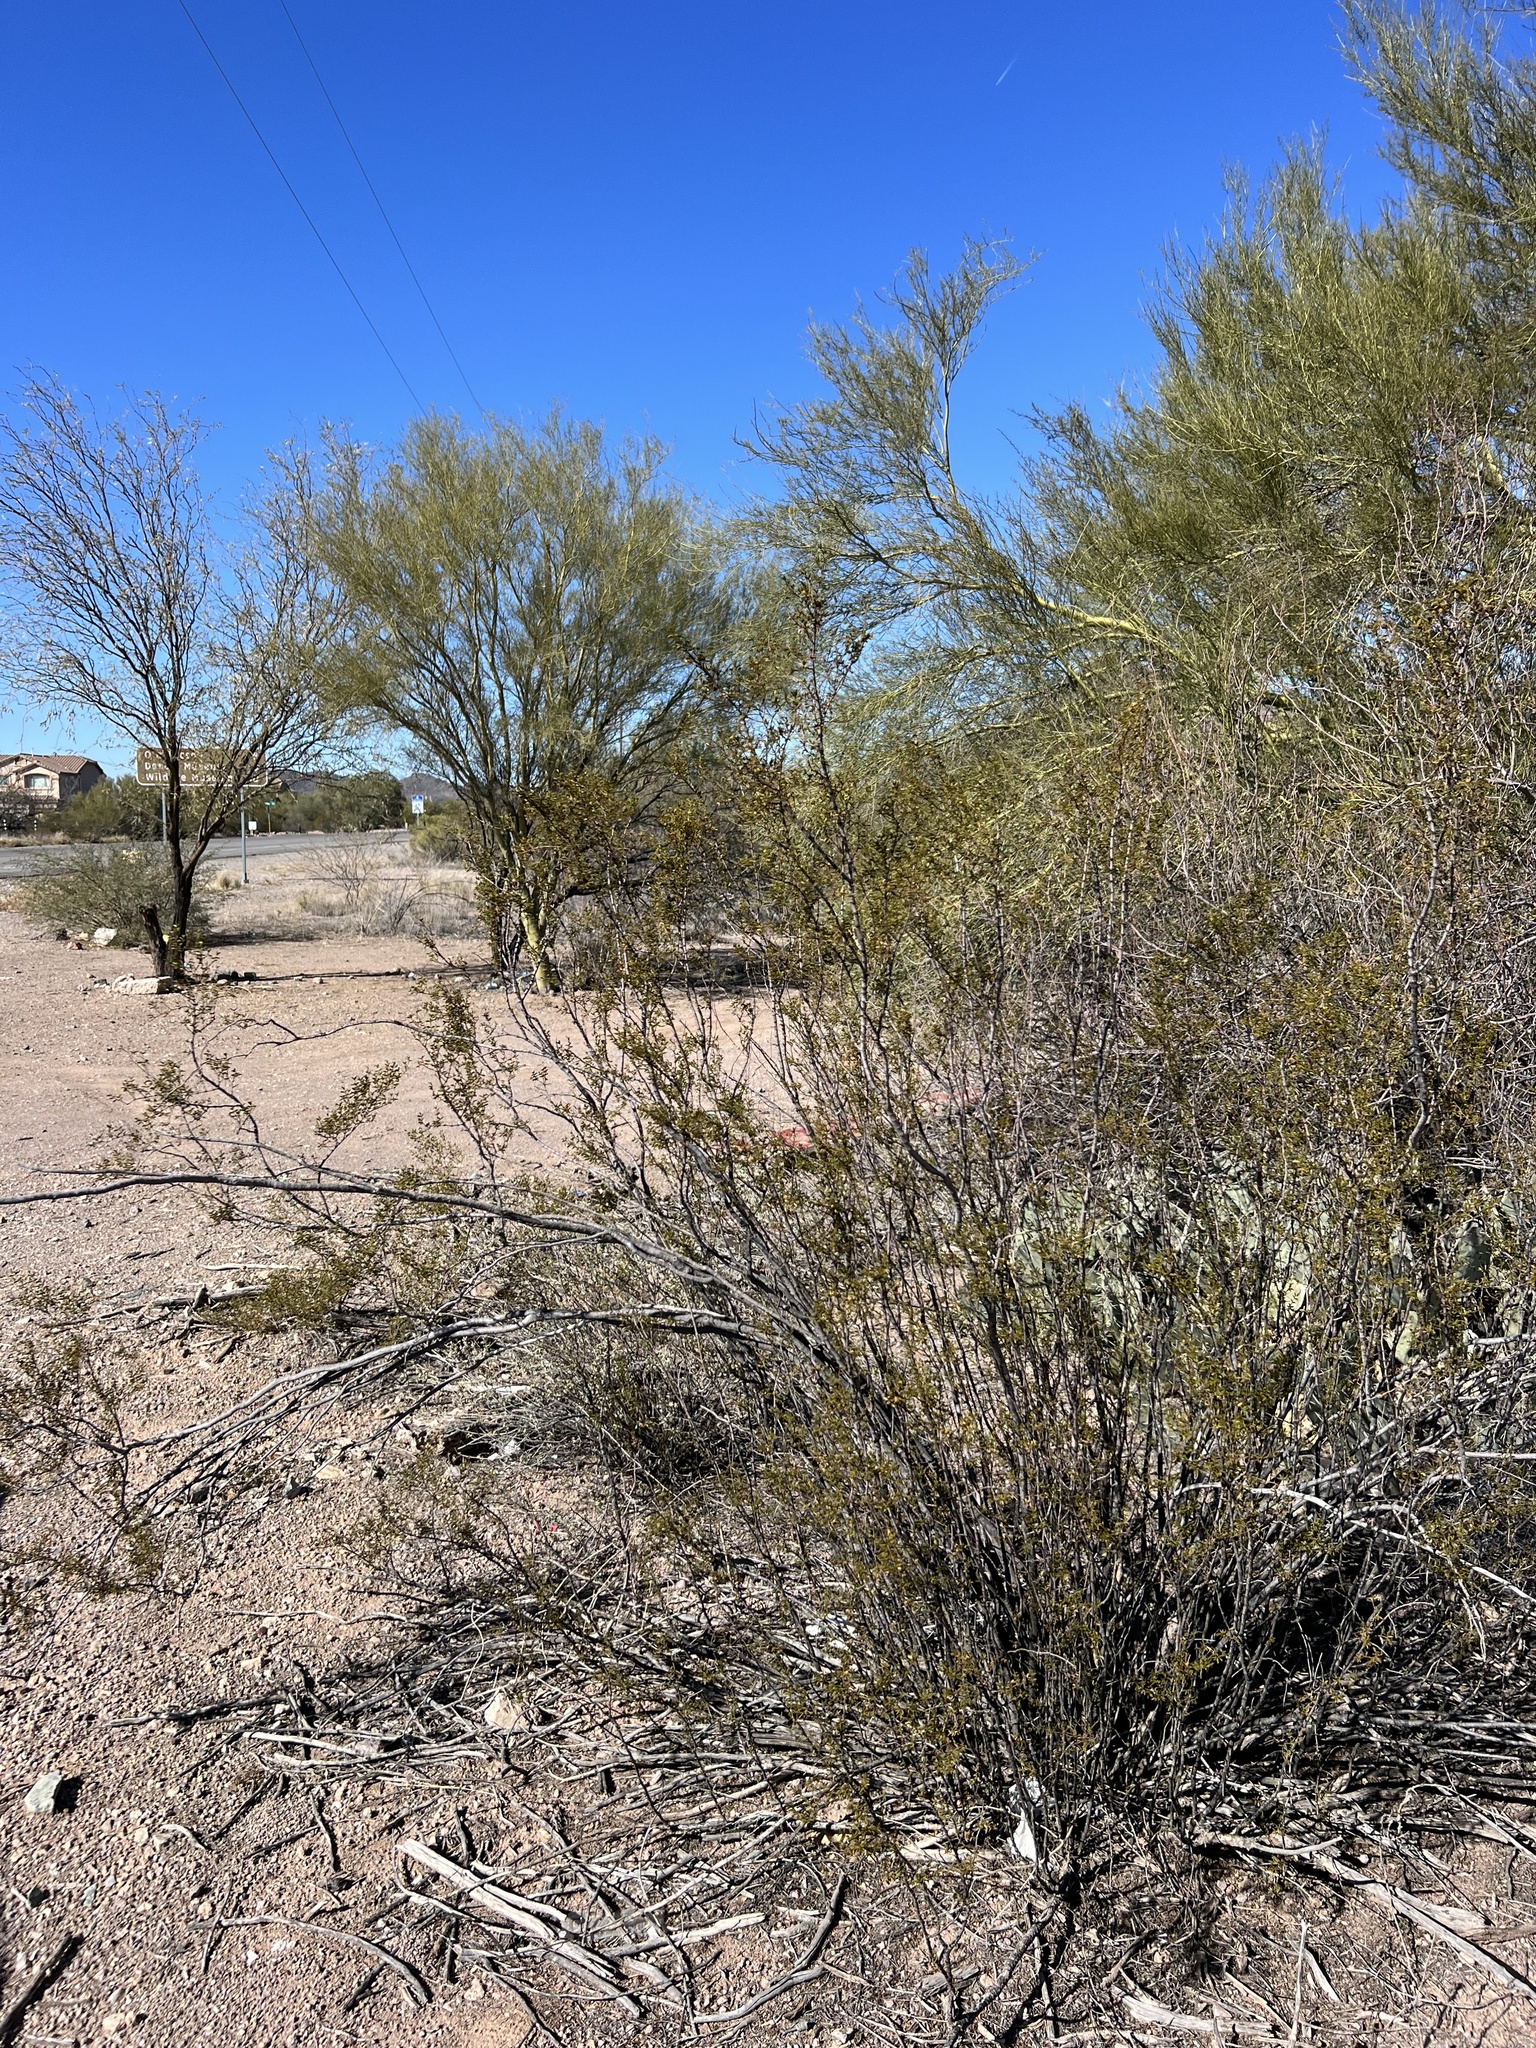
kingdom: Plantae
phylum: Tracheophyta
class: Magnoliopsida
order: Zygophyllales
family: Zygophyllaceae
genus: Larrea
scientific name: Larrea tridentata
